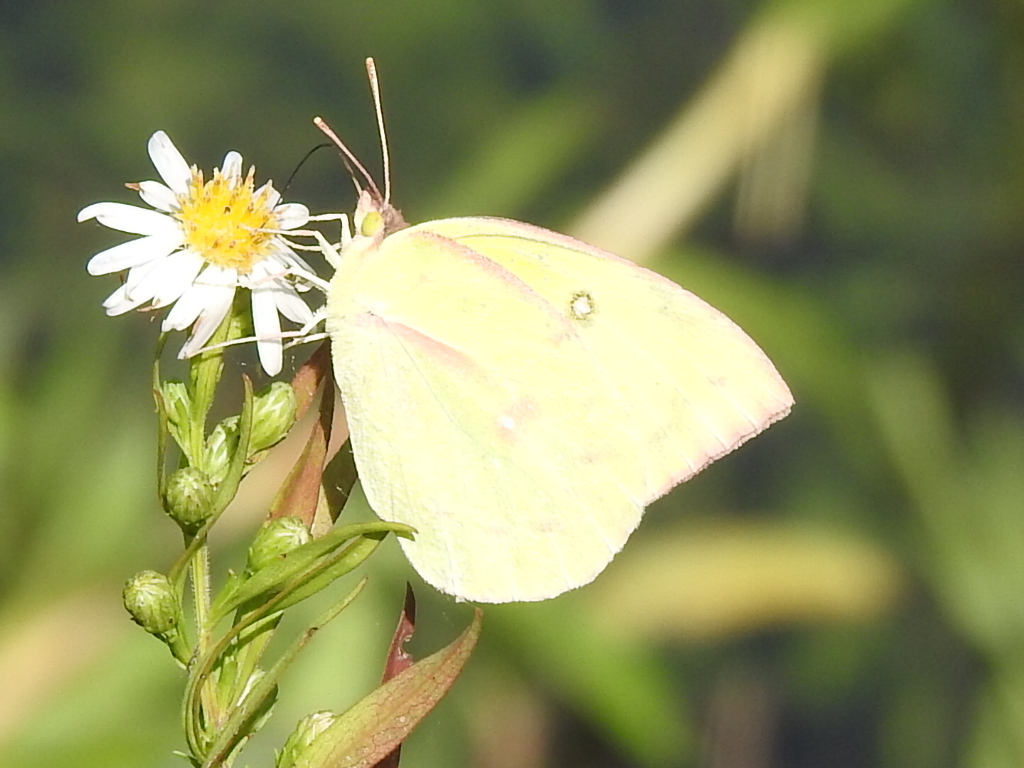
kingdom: Animalia
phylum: Arthropoda
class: Insecta
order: Lepidoptera
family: Pieridae
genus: Zerene
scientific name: Zerene cesonia
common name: Southern dogface
